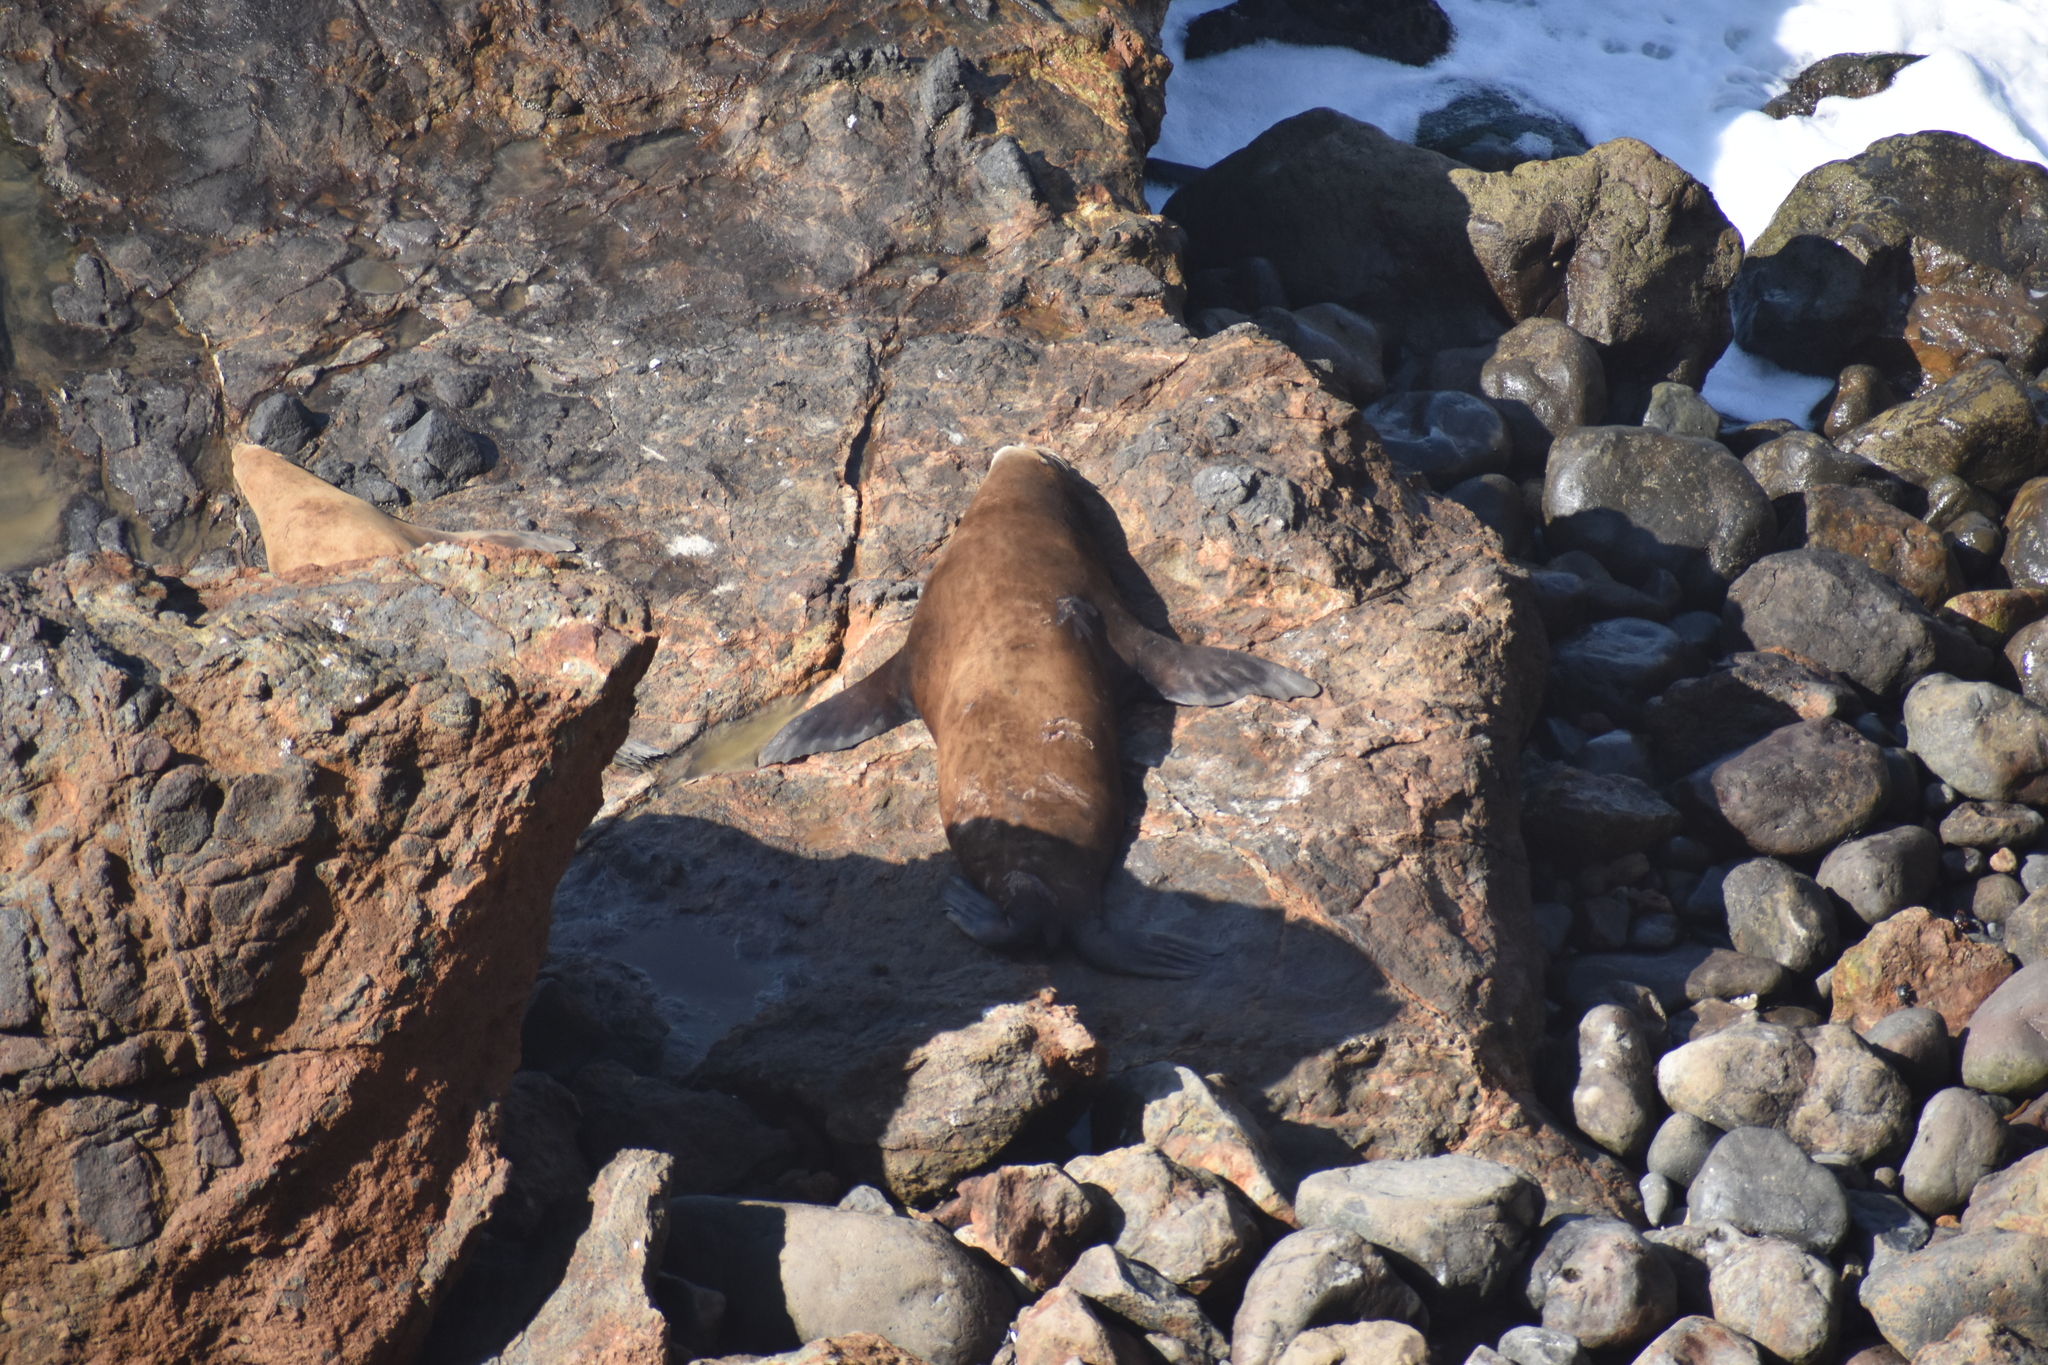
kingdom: Animalia
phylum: Chordata
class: Mammalia
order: Carnivora
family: Otariidae
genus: Zalophus
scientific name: Zalophus californianus
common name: California sea lion
